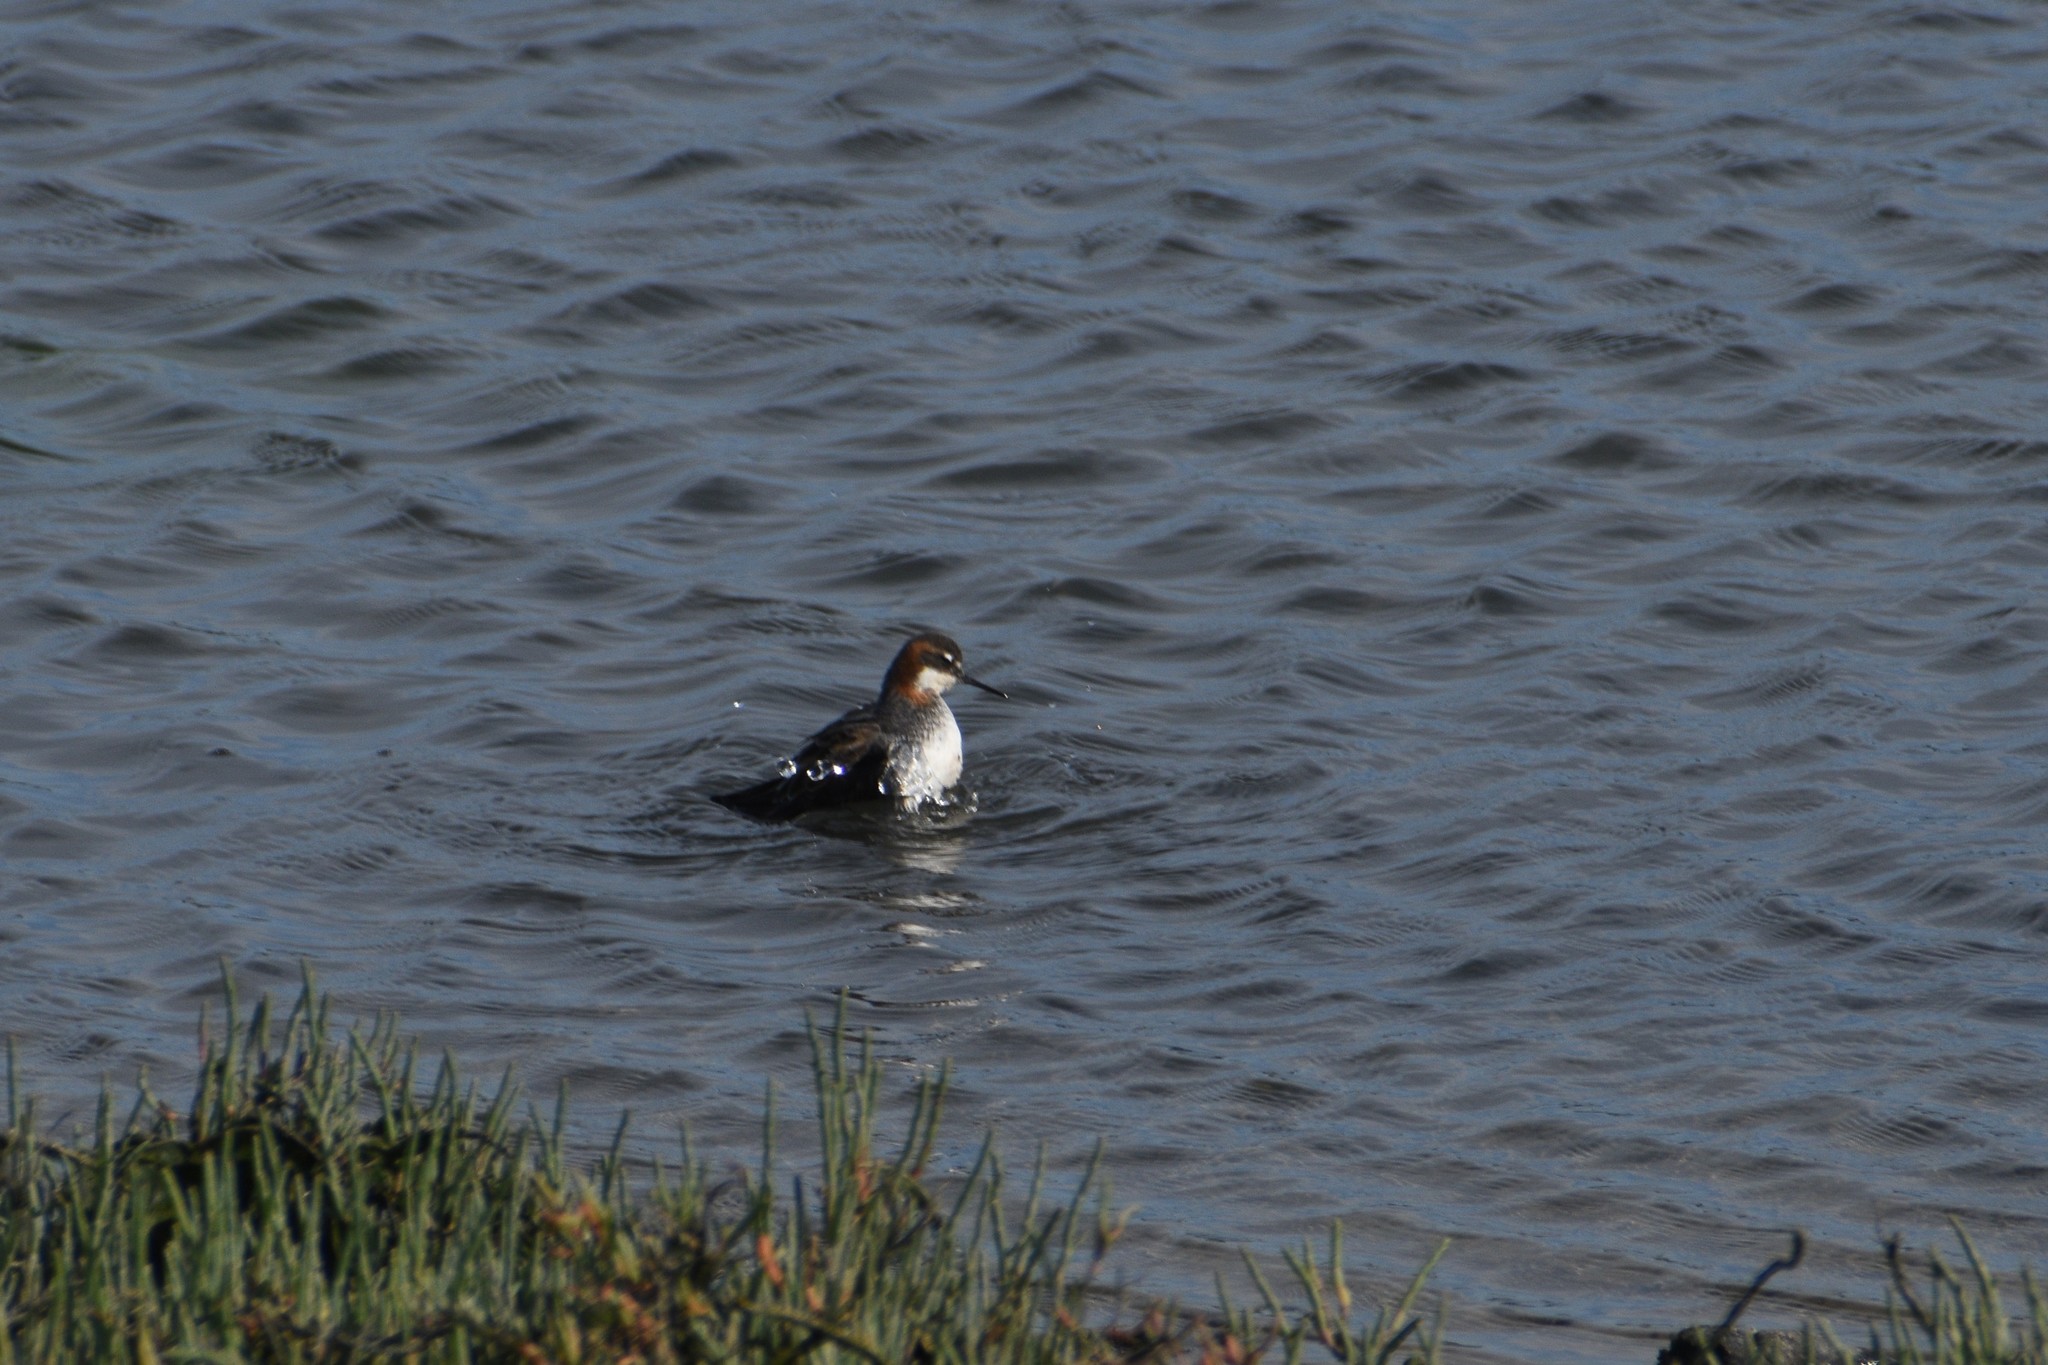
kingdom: Animalia
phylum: Chordata
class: Aves
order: Charadriiformes
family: Scolopacidae
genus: Phalaropus
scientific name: Phalaropus lobatus
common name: Red-necked phalarope
